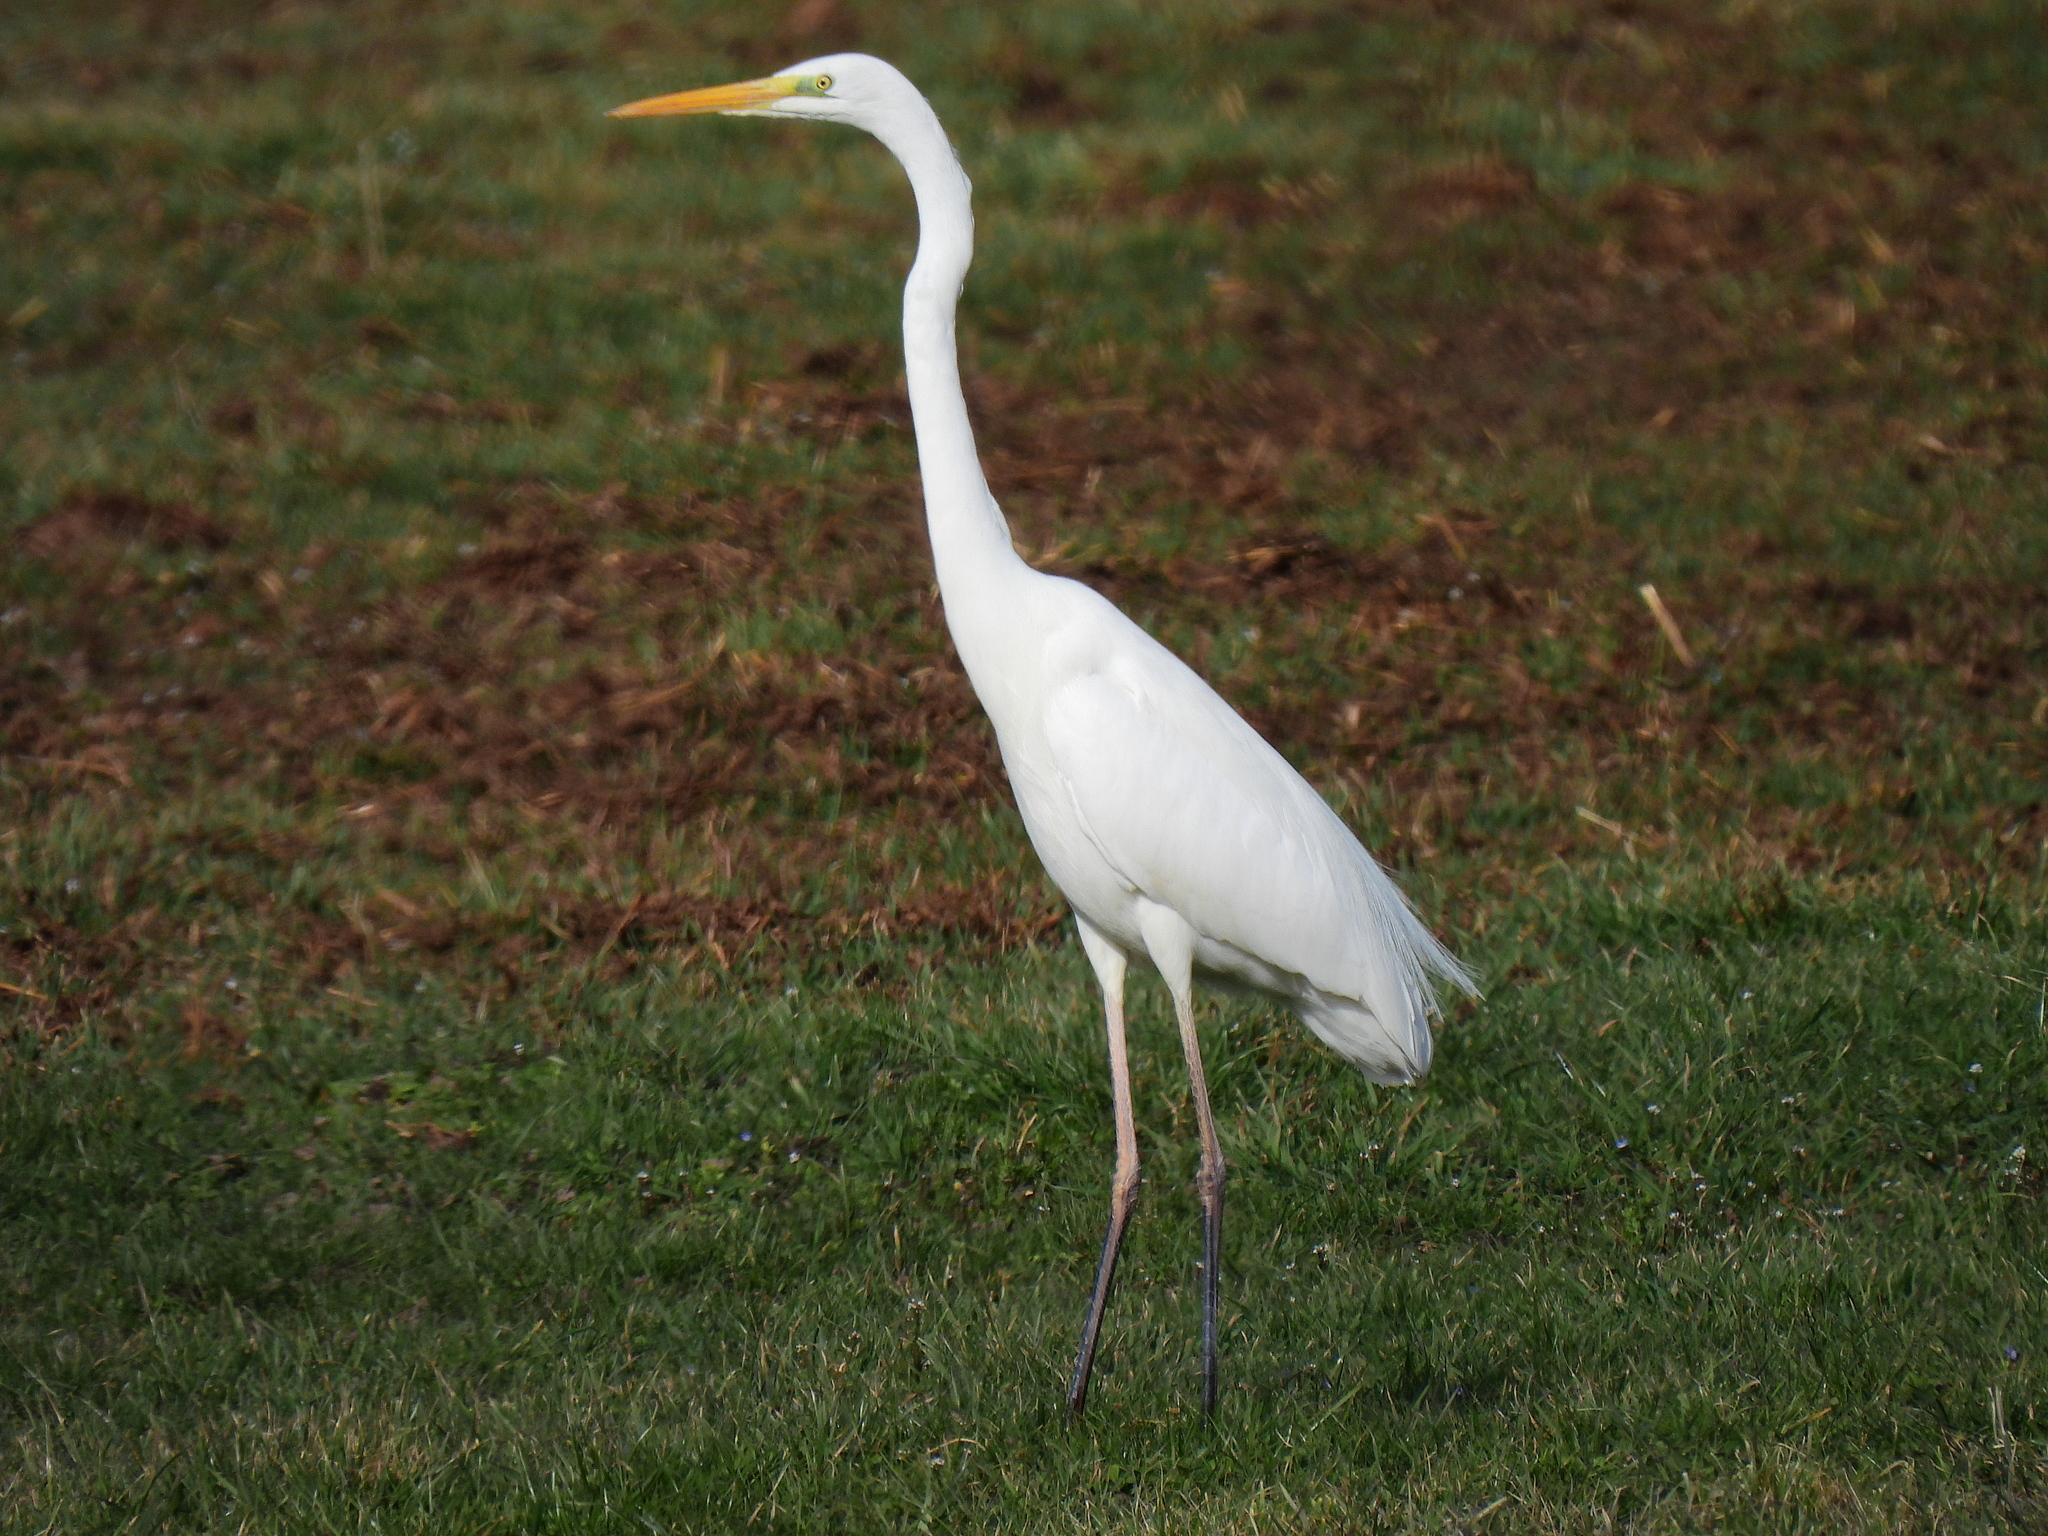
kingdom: Animalia
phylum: Chordata
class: Aves
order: Pelecaniformes
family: Ardeidae
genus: Ardea
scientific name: Ardea alba
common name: Great egret
